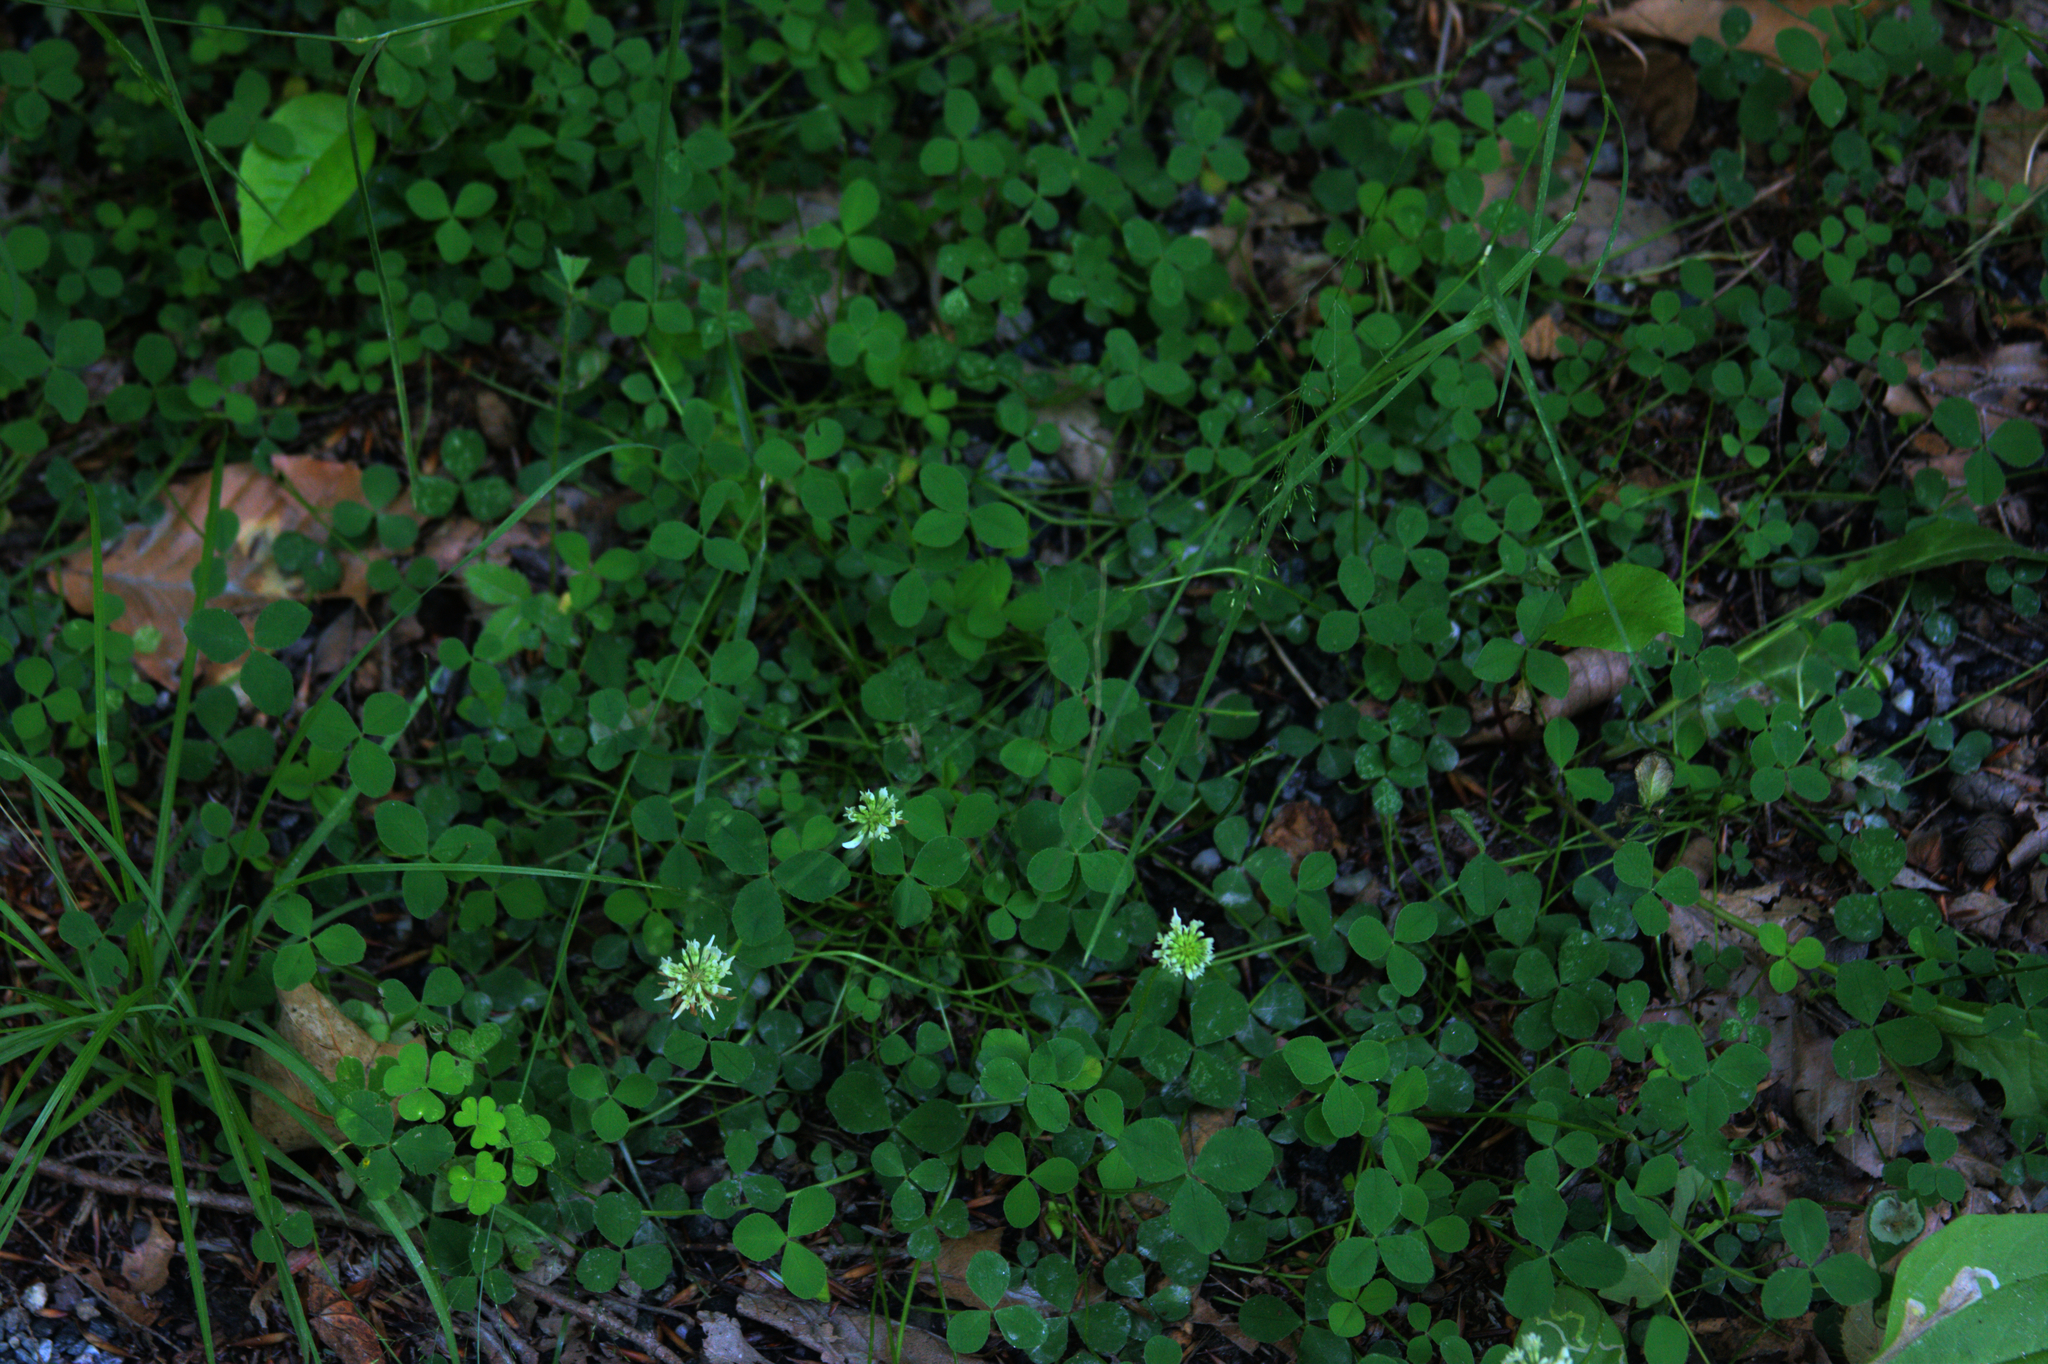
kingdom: Plantae
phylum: Tracheophyta
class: Magnoliopsida
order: Fabales
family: Fabaceae
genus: Trifolium
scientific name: Trifolium repens
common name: White clover
